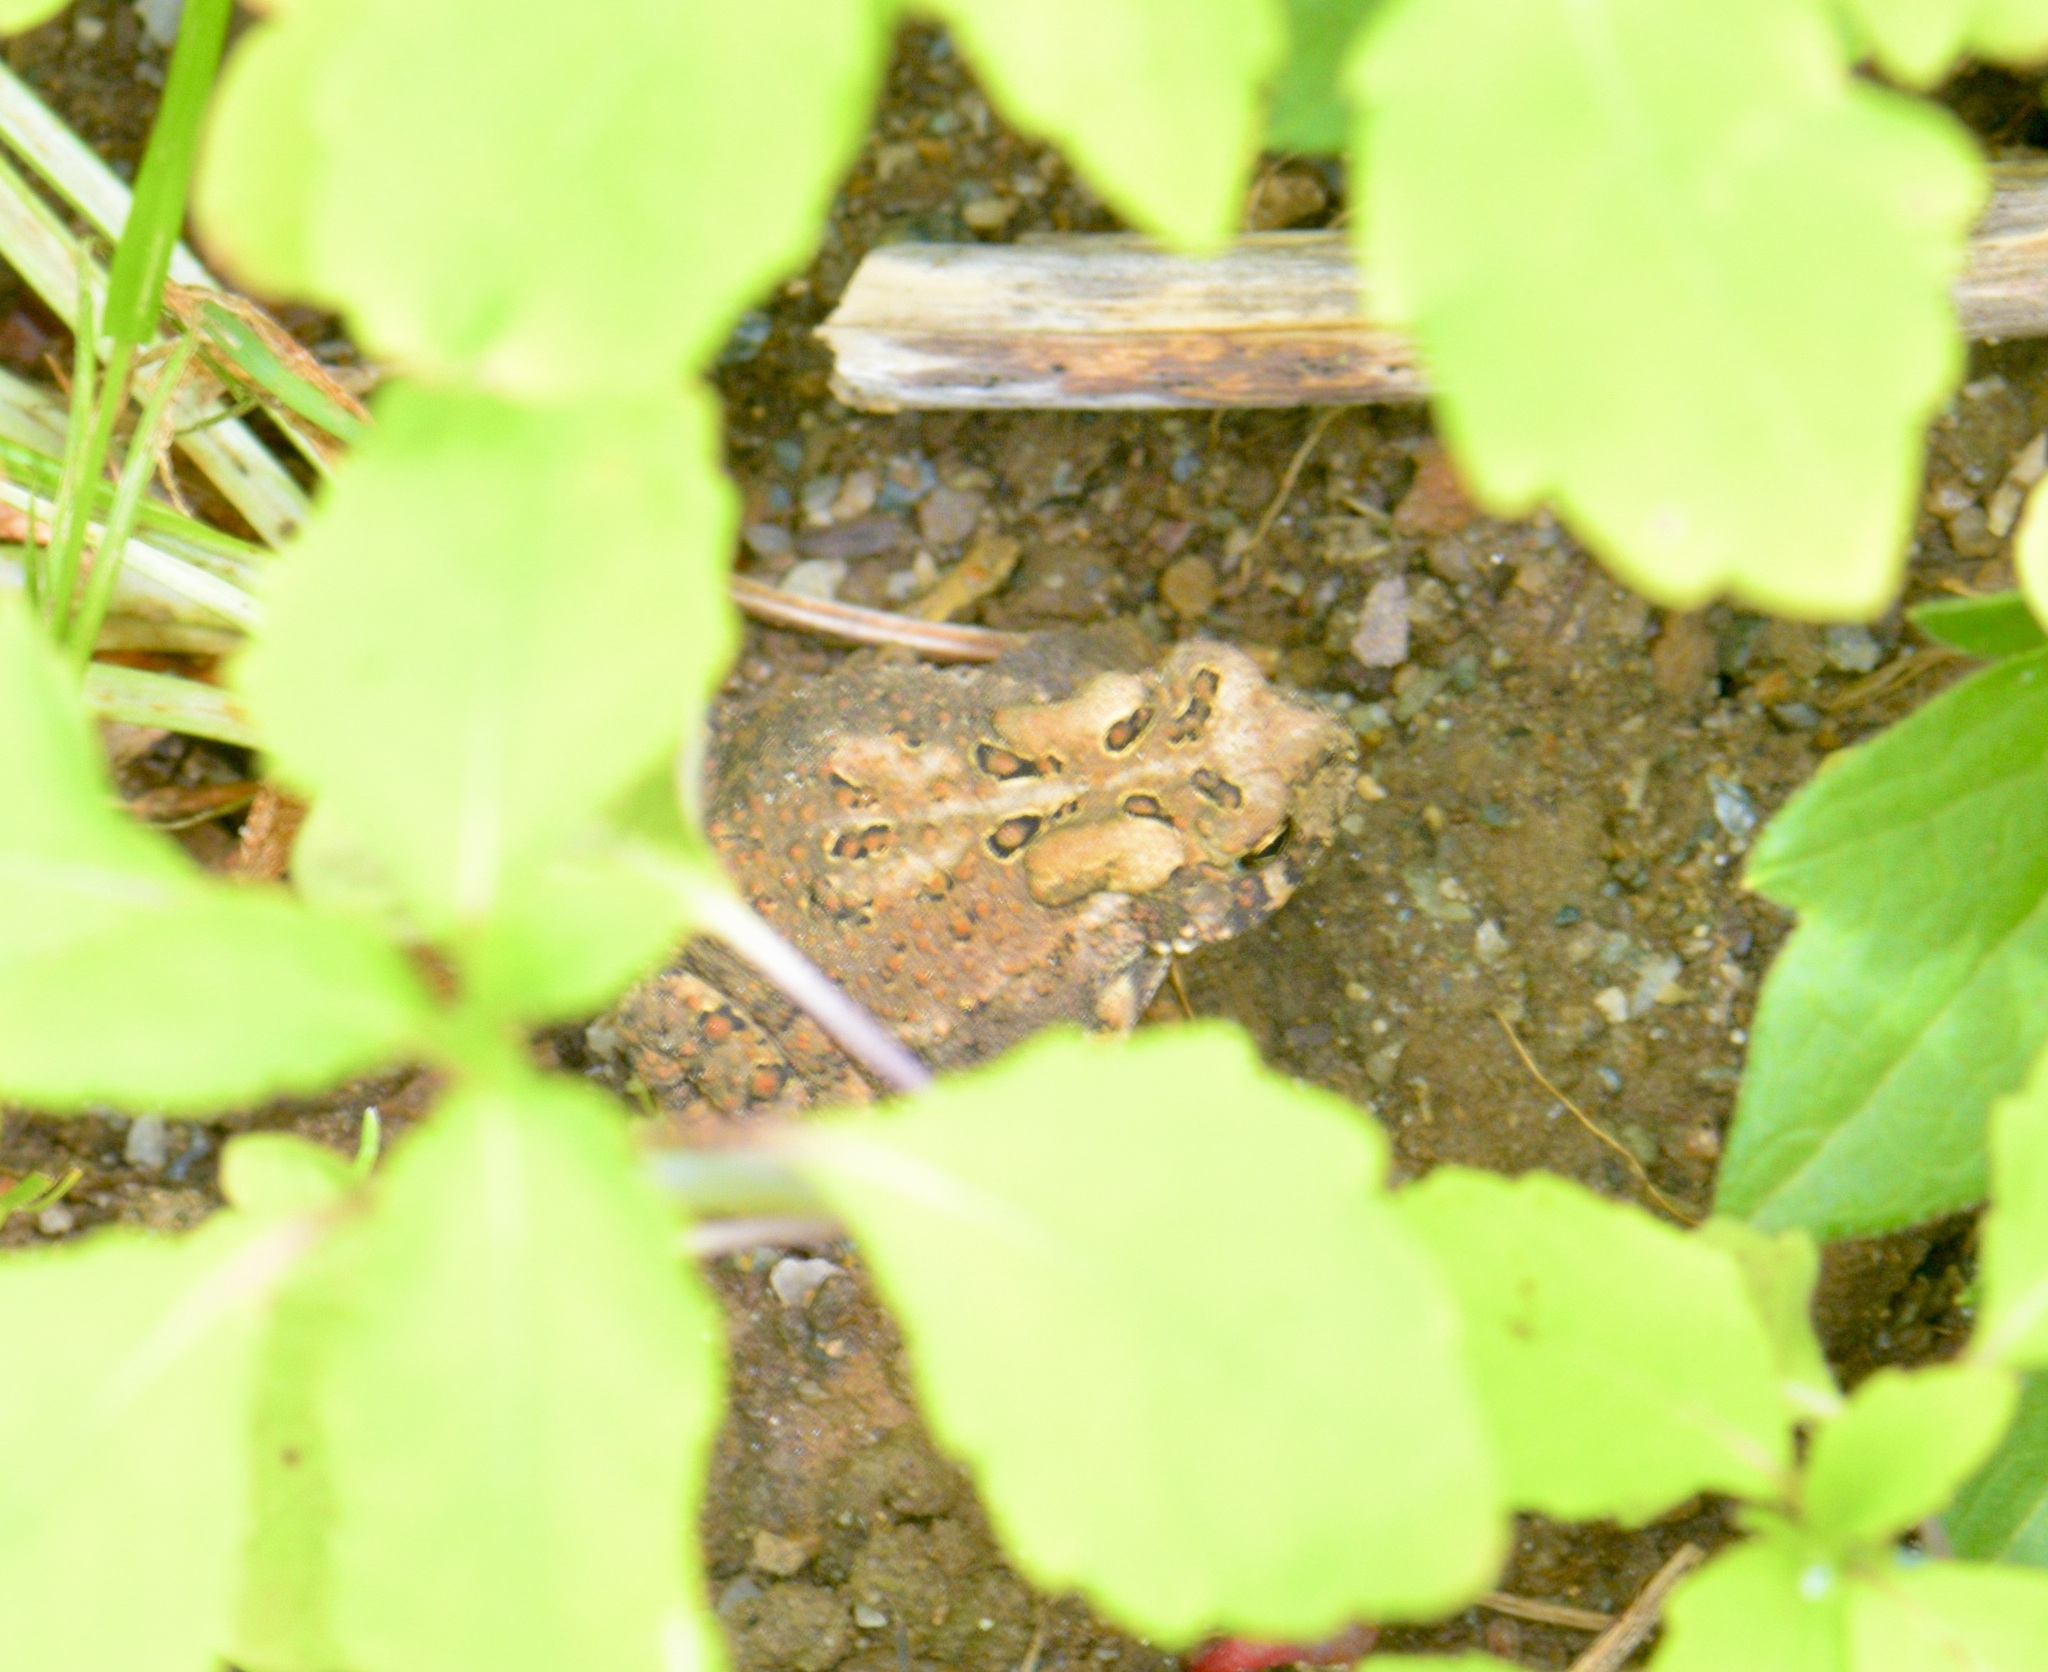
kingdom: Animalia
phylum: Chordata
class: Amphibia
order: Anura
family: Bufonidae
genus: Anaxyrus
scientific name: Anaxyrus americanus
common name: American toad
